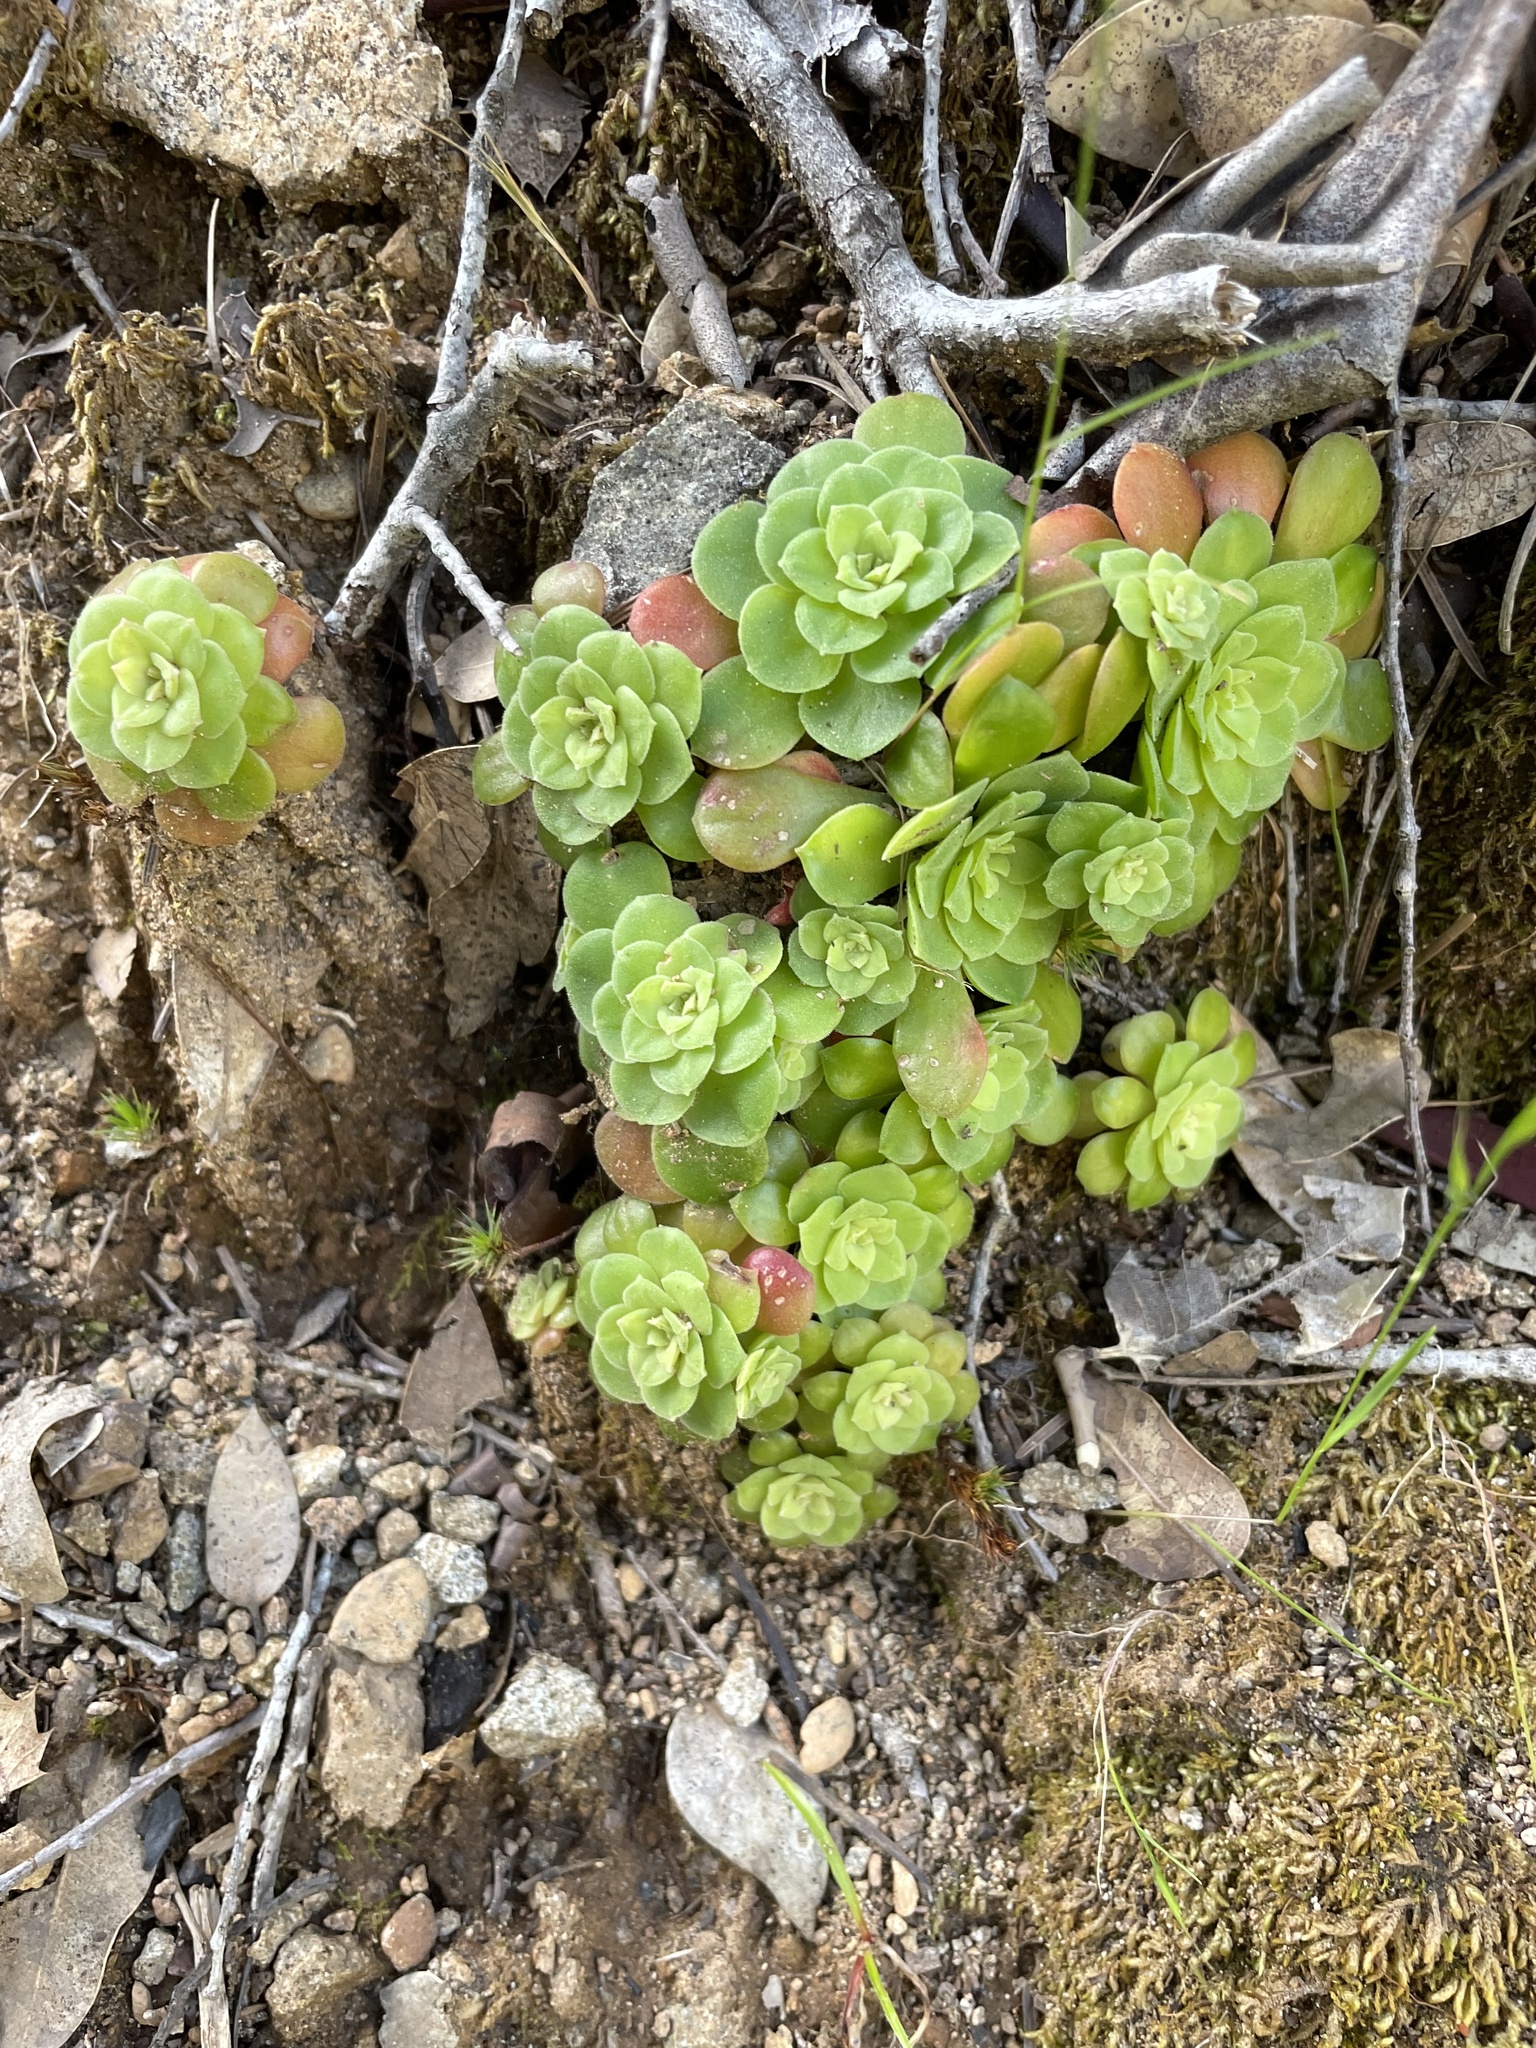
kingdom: Plantae
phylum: Tracheophyta
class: Magnoliopsida
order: Saxifragales
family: Crassulaceae
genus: Sedum
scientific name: Sedum spathulifolium
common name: Colorado stonecrop
